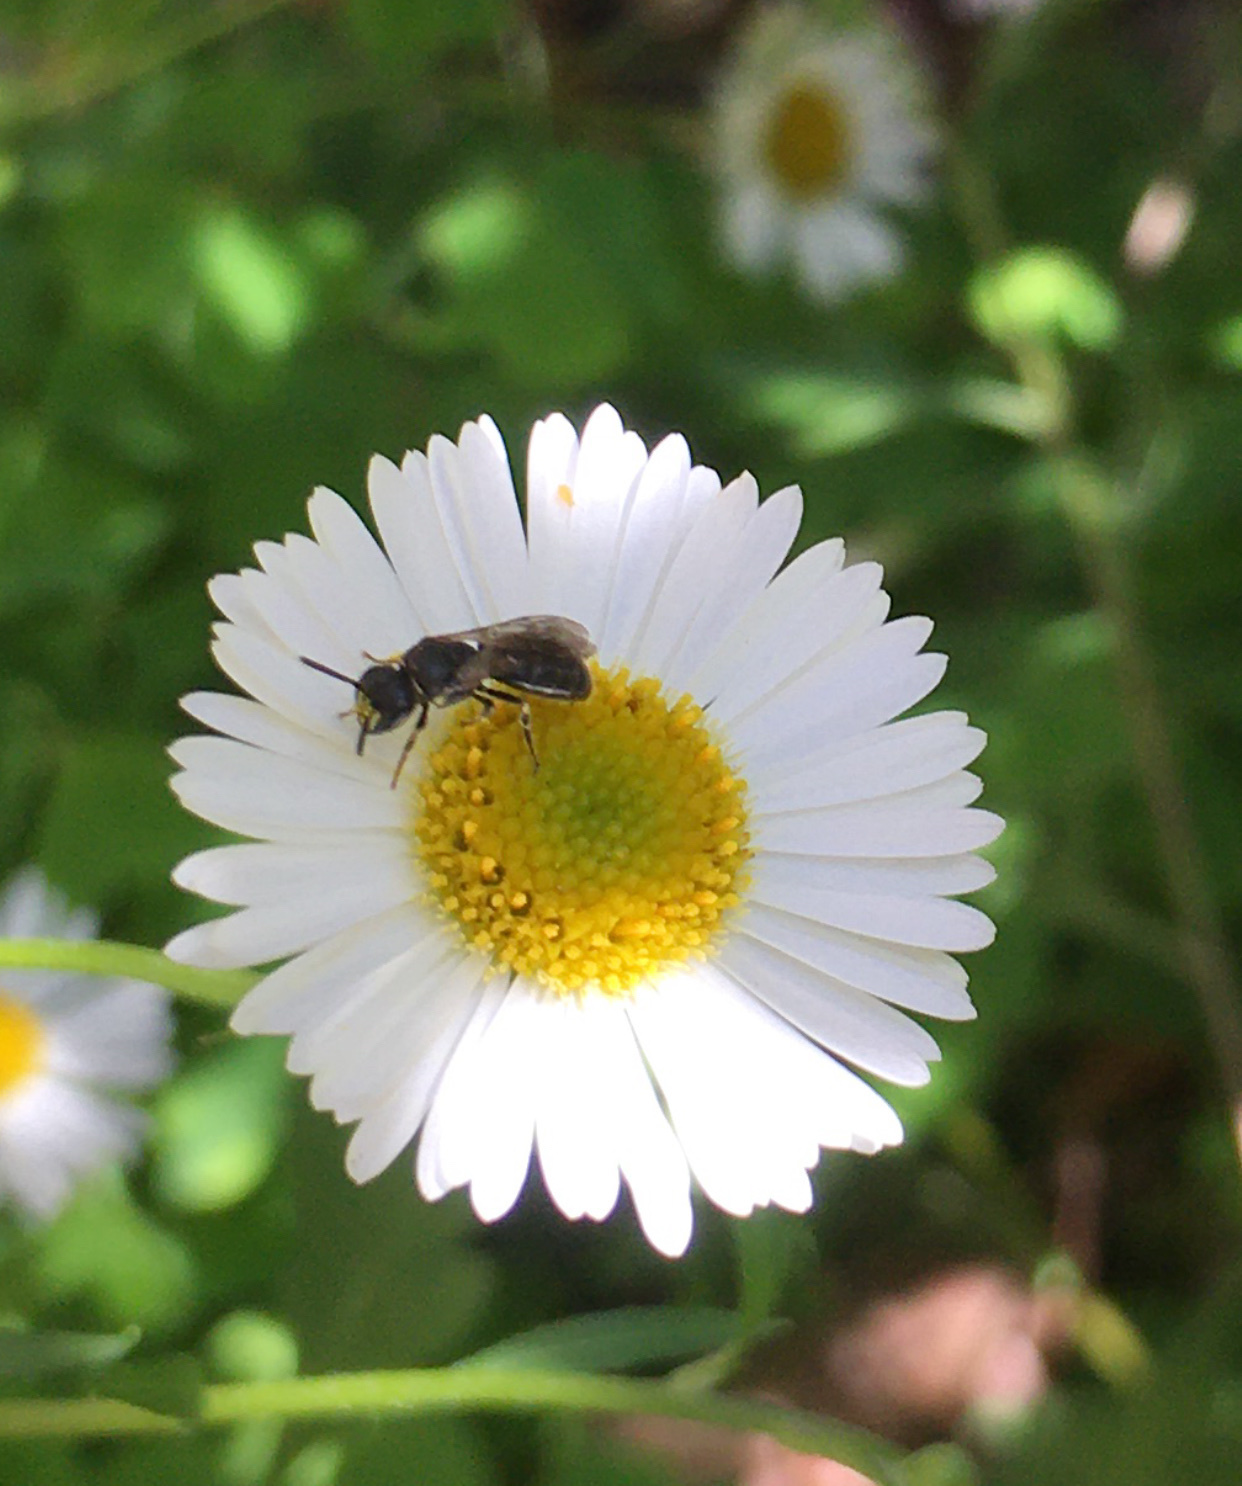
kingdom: Animalia
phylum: Arthropoda
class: Insecta
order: Hymenoptera
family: Colletidae
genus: Hylaeus
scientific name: Hylaeus
